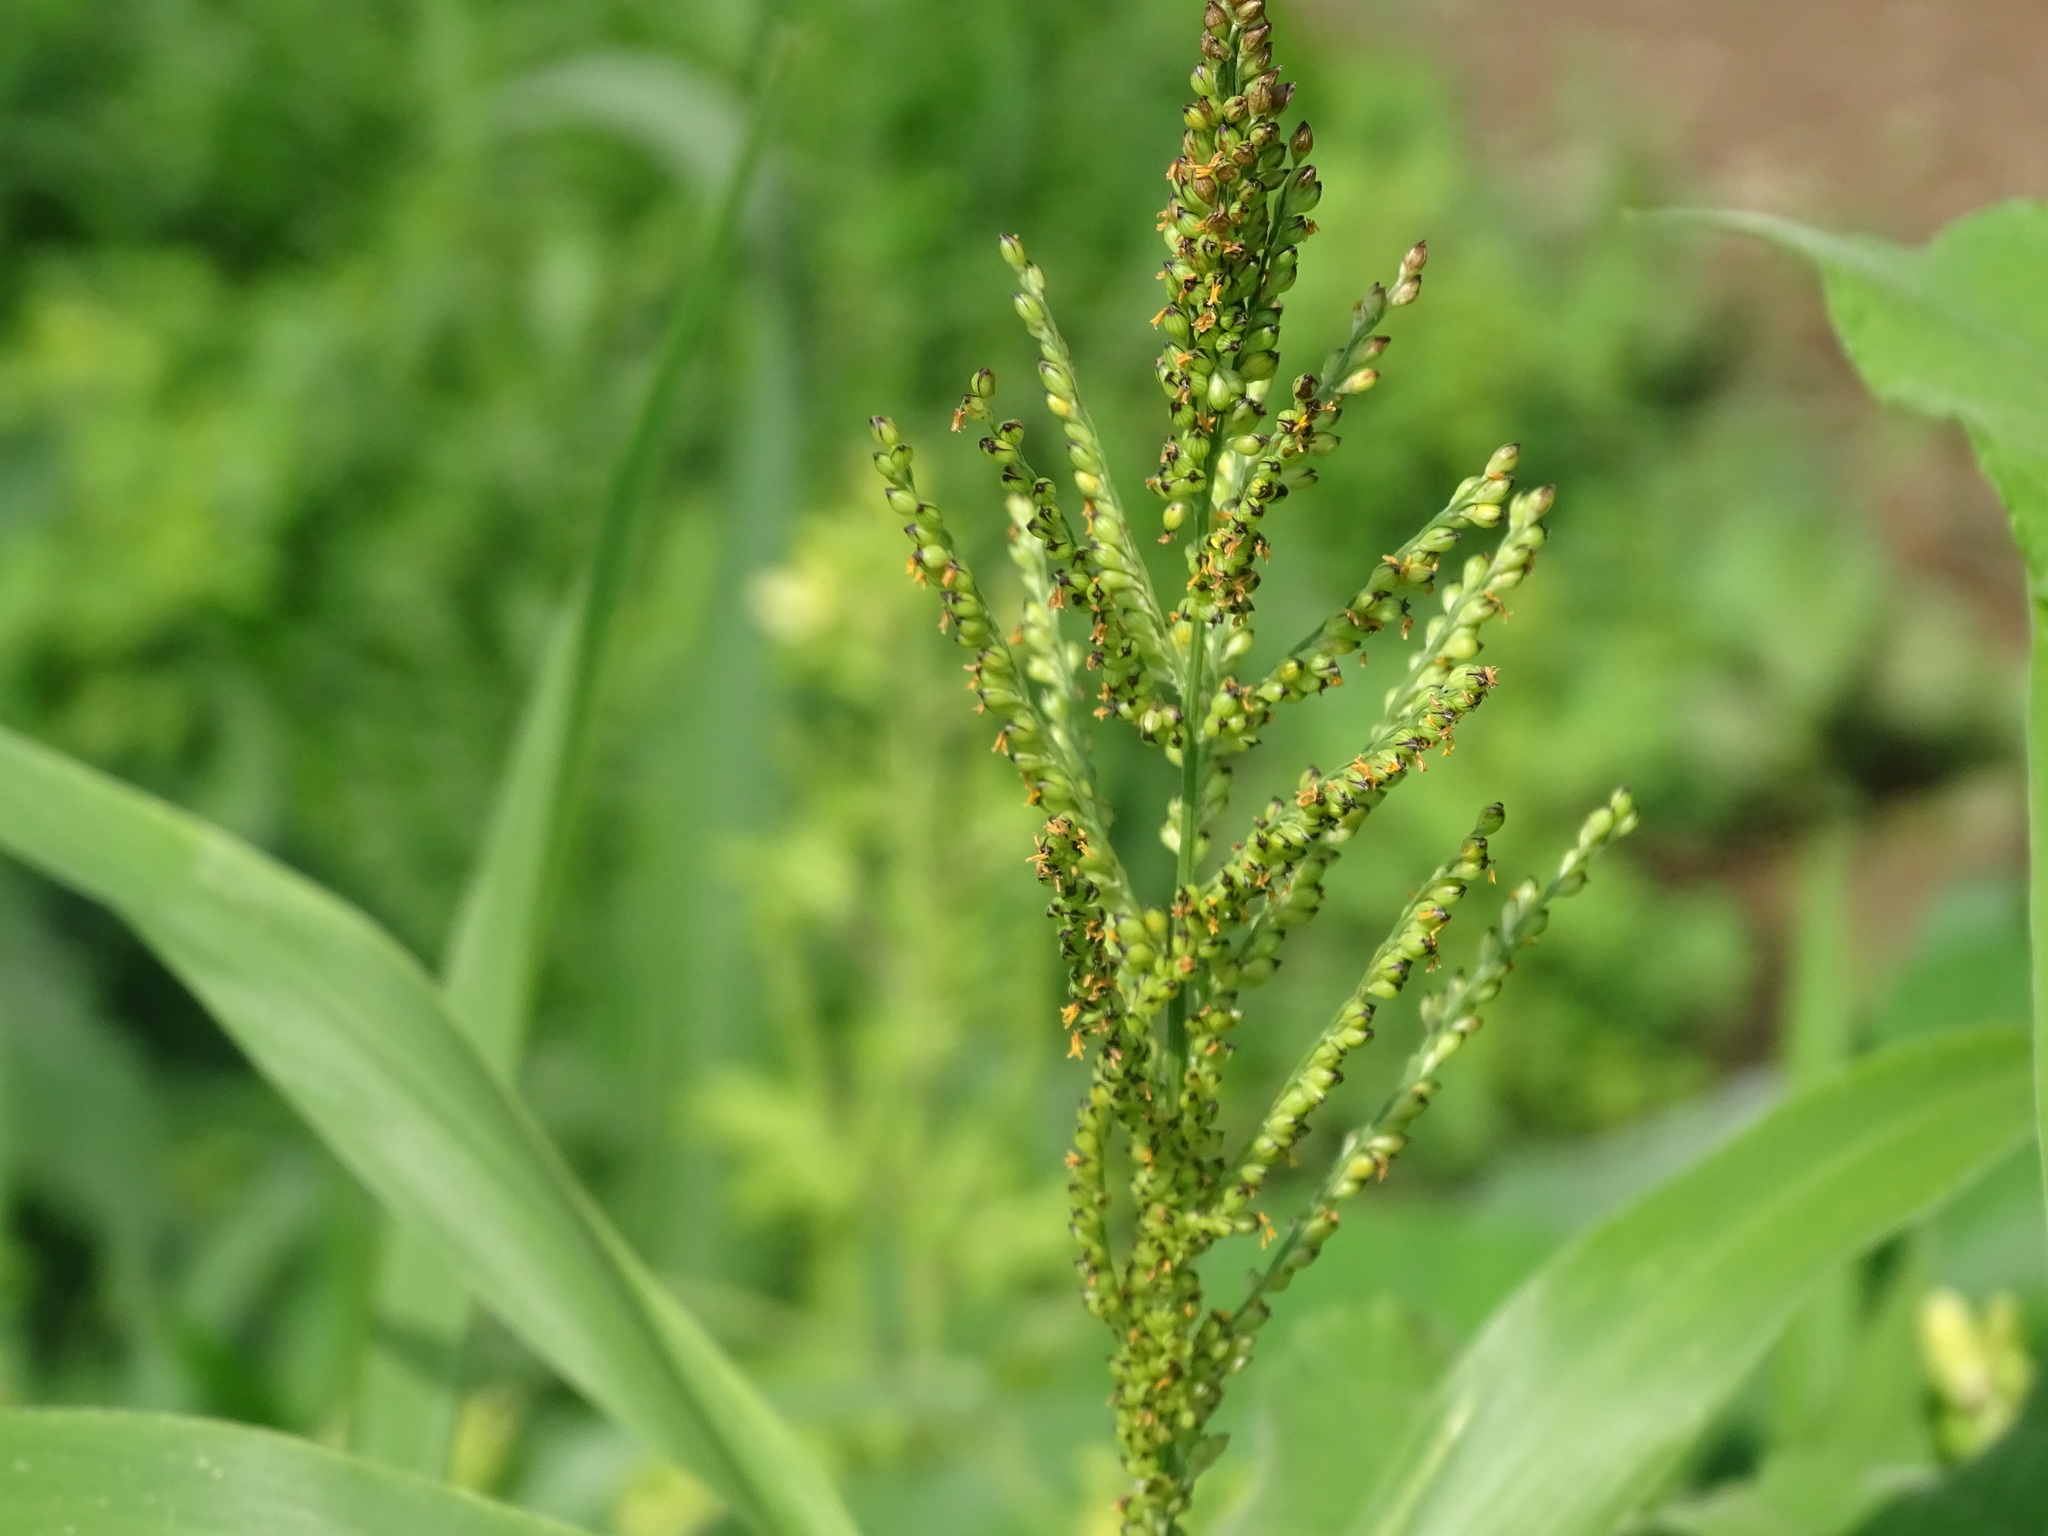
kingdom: Plantae
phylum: Tracheophyta
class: Liliopsida
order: Poales
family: Poaceae
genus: Urochloa
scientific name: Urochloa fusca
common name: Browntop signal grass
